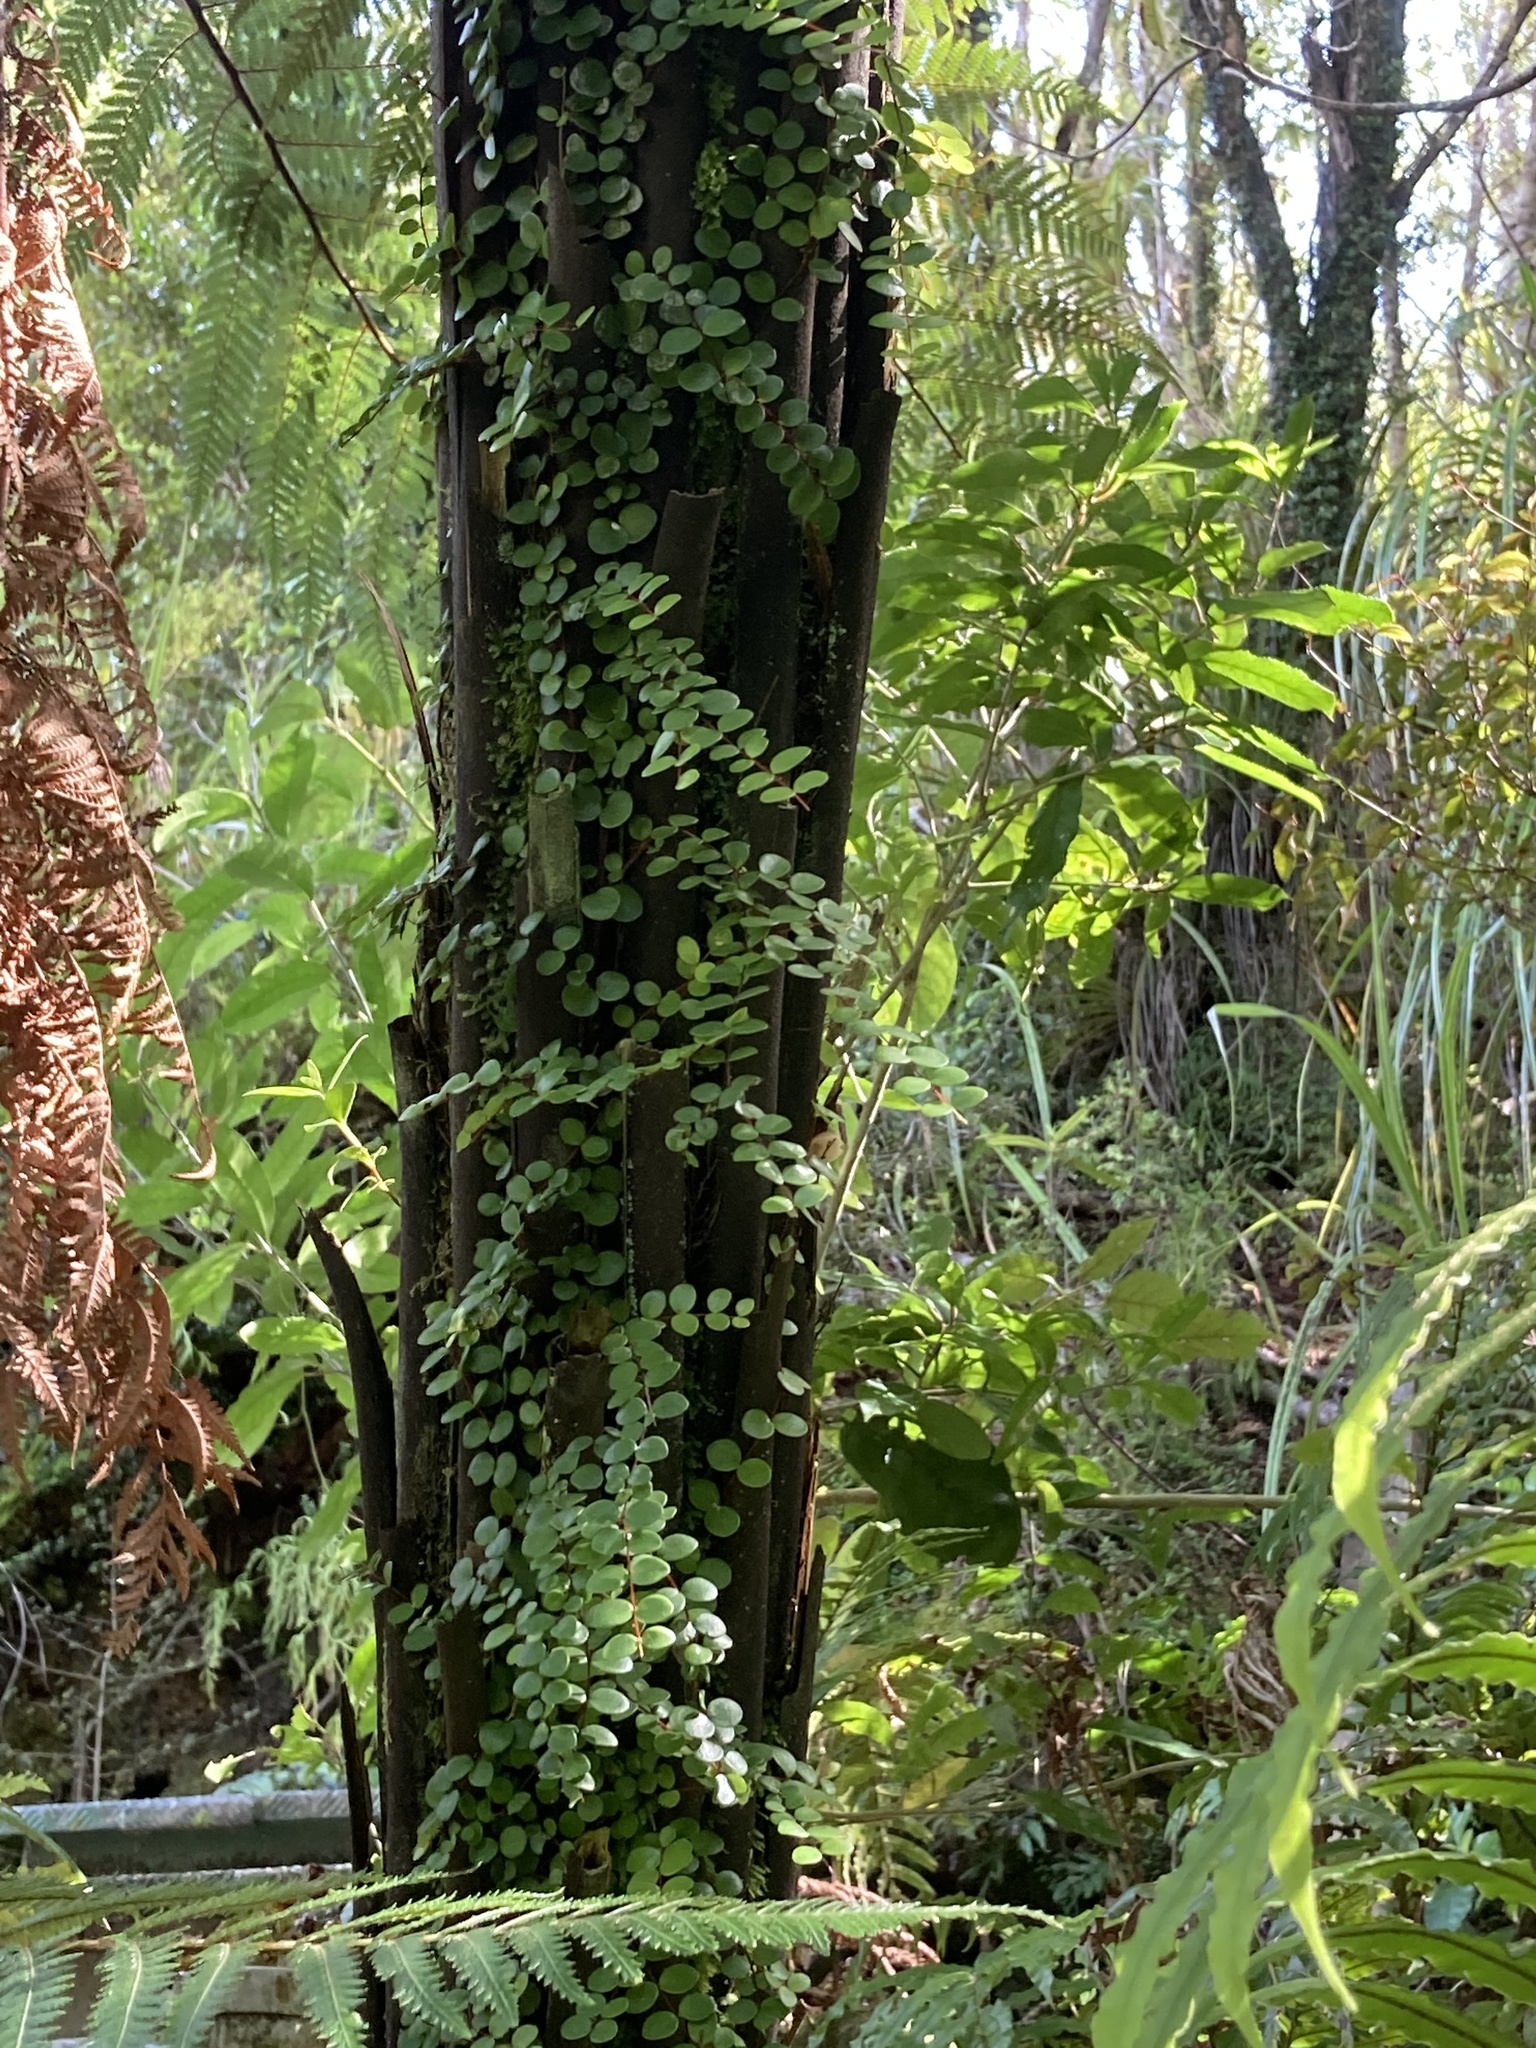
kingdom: Plantae
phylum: Tracheophyta
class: Magnoliopsida
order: Myrtales
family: Myrtaceae
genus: Metrosideros
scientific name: Metrosideros perforata
